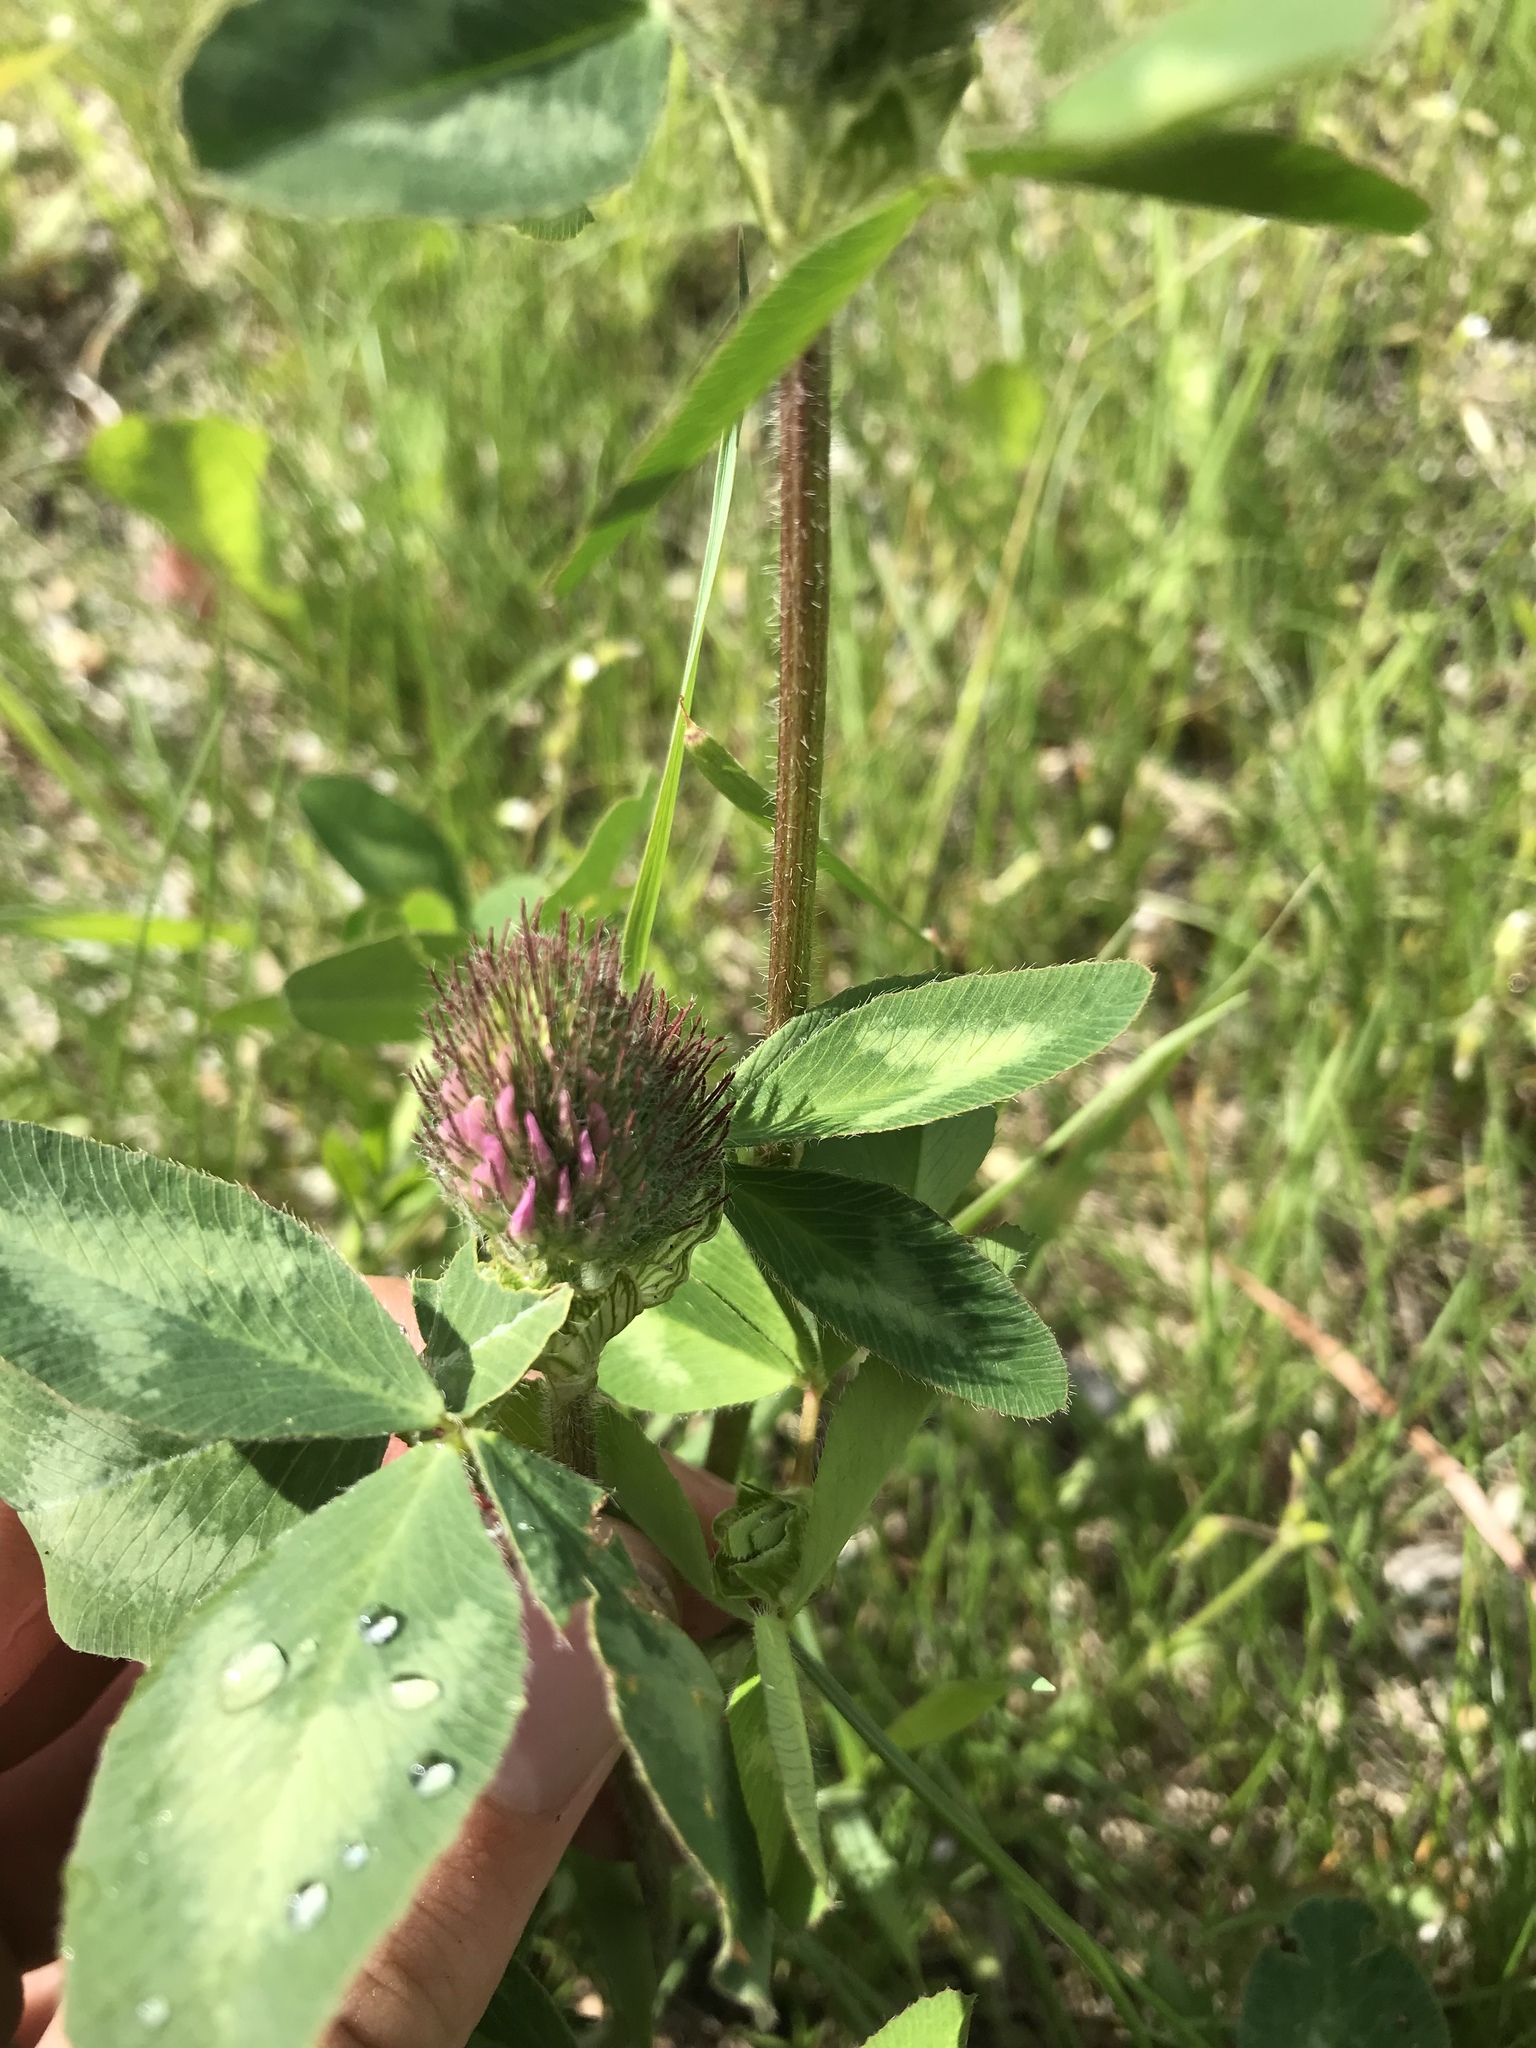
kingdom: Plantae
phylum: Tracheophyta
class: Magnoliopsida
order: Fabales
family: Fabaceae
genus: Trifolium
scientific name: Trifolium pratense
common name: Red clover
